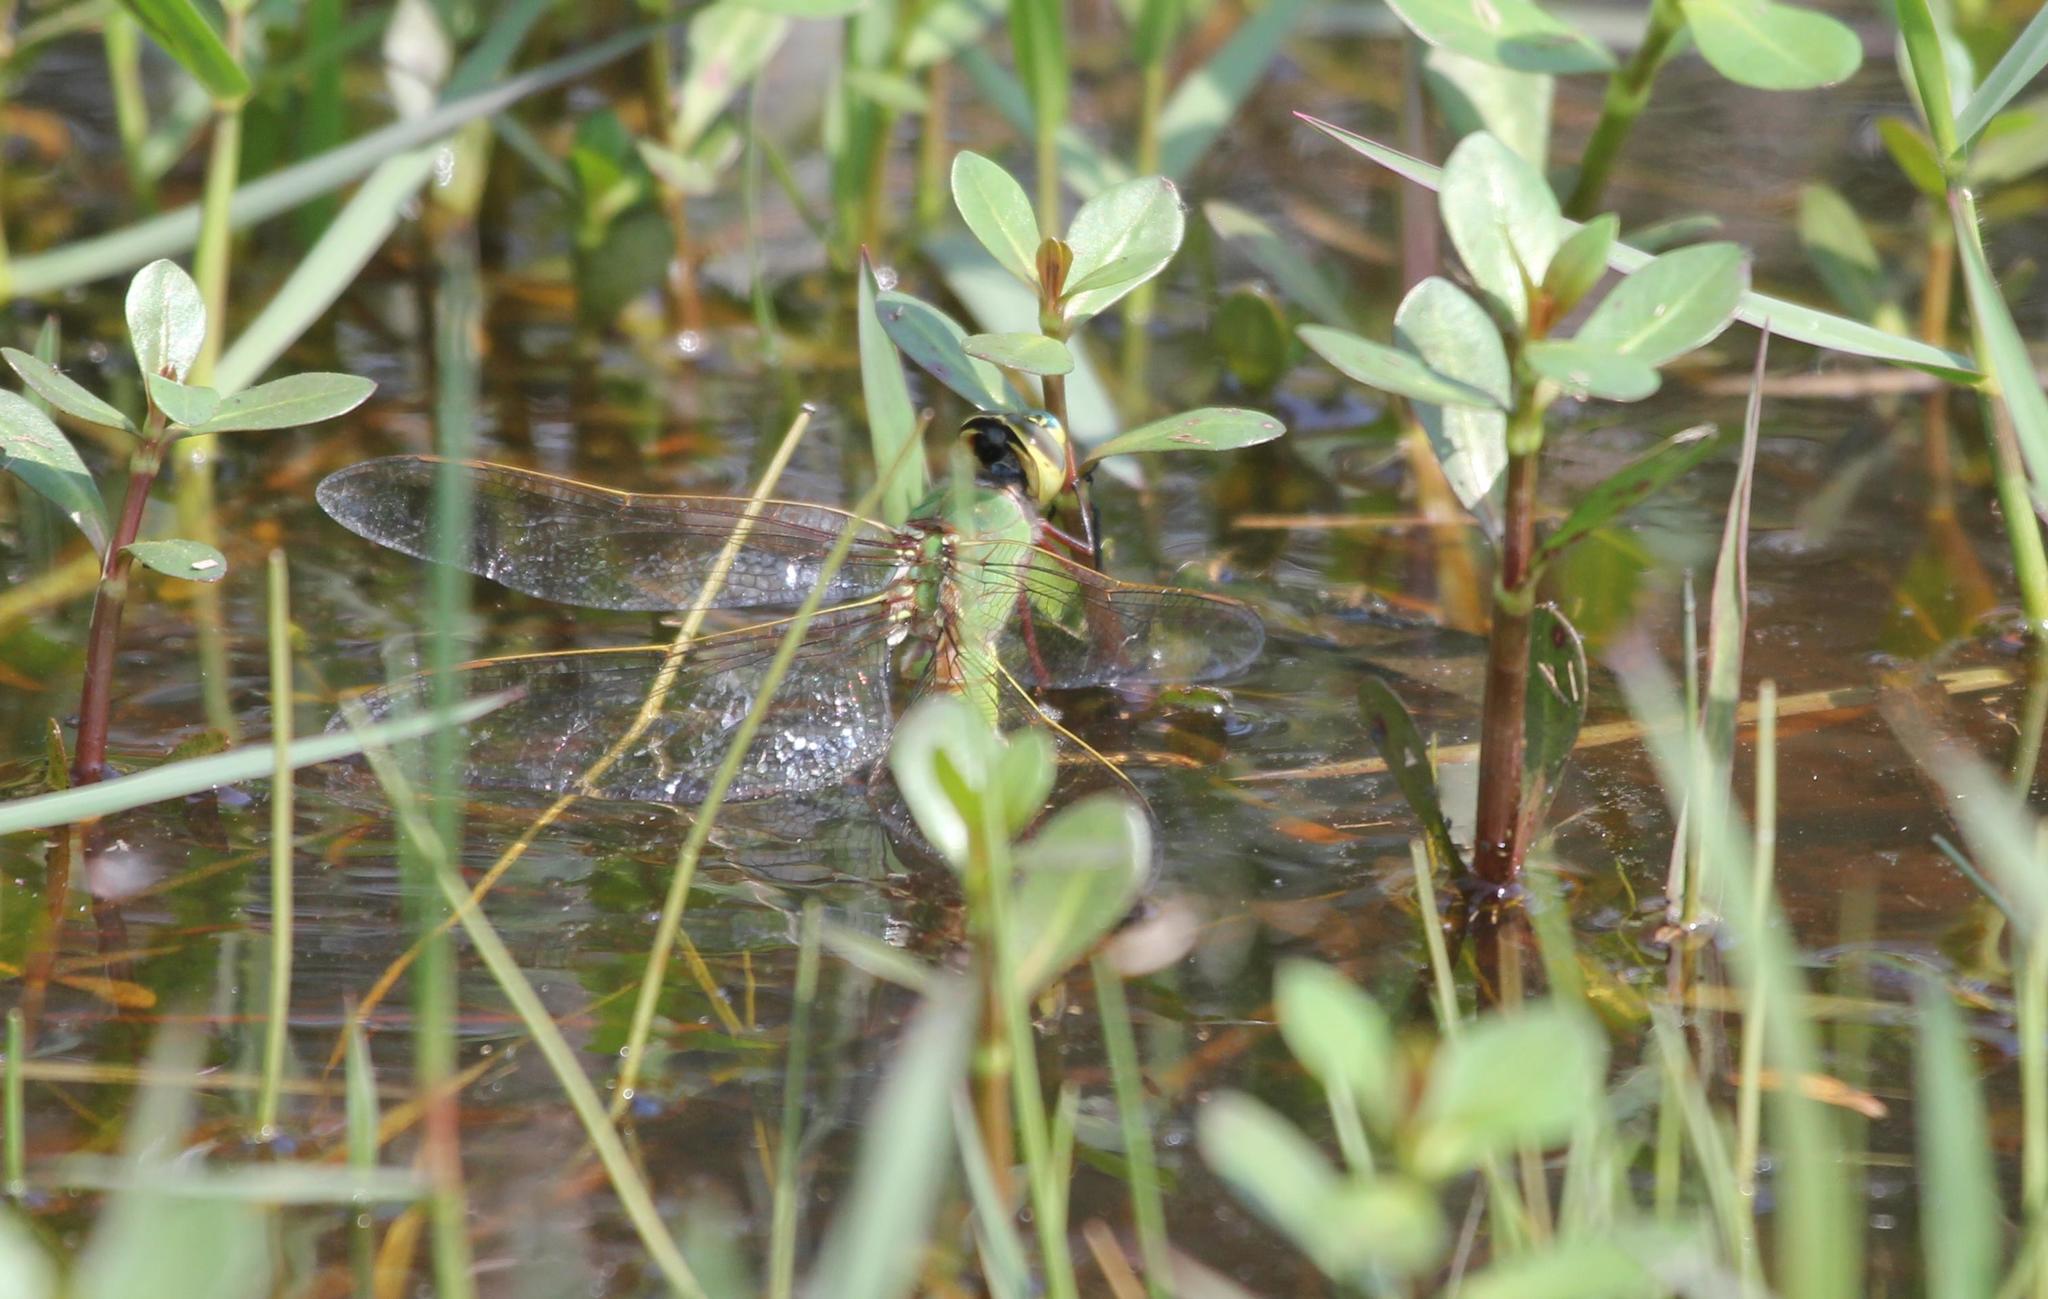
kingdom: Animalia
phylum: Arthropoda
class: Insecta
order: Odonata
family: Aeshnidae
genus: Anax
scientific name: Anax junius
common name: Common green darner
